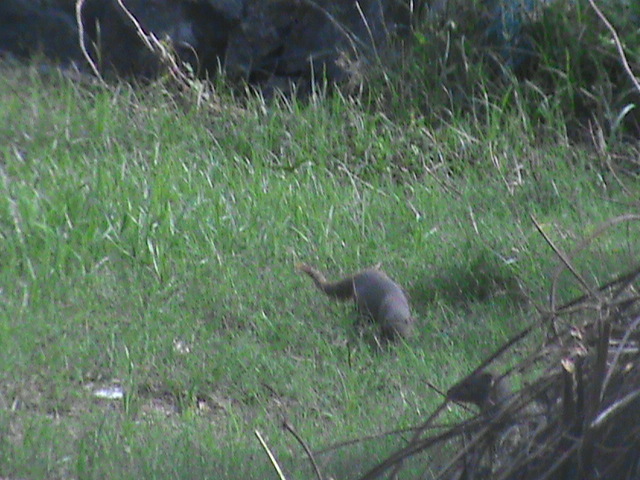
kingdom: Animalia
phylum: Chordata
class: Mammalia
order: Carnivora
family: Herpestidae
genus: Herpestes
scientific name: Herpestes edwardsi
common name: Indian gray mongoose
